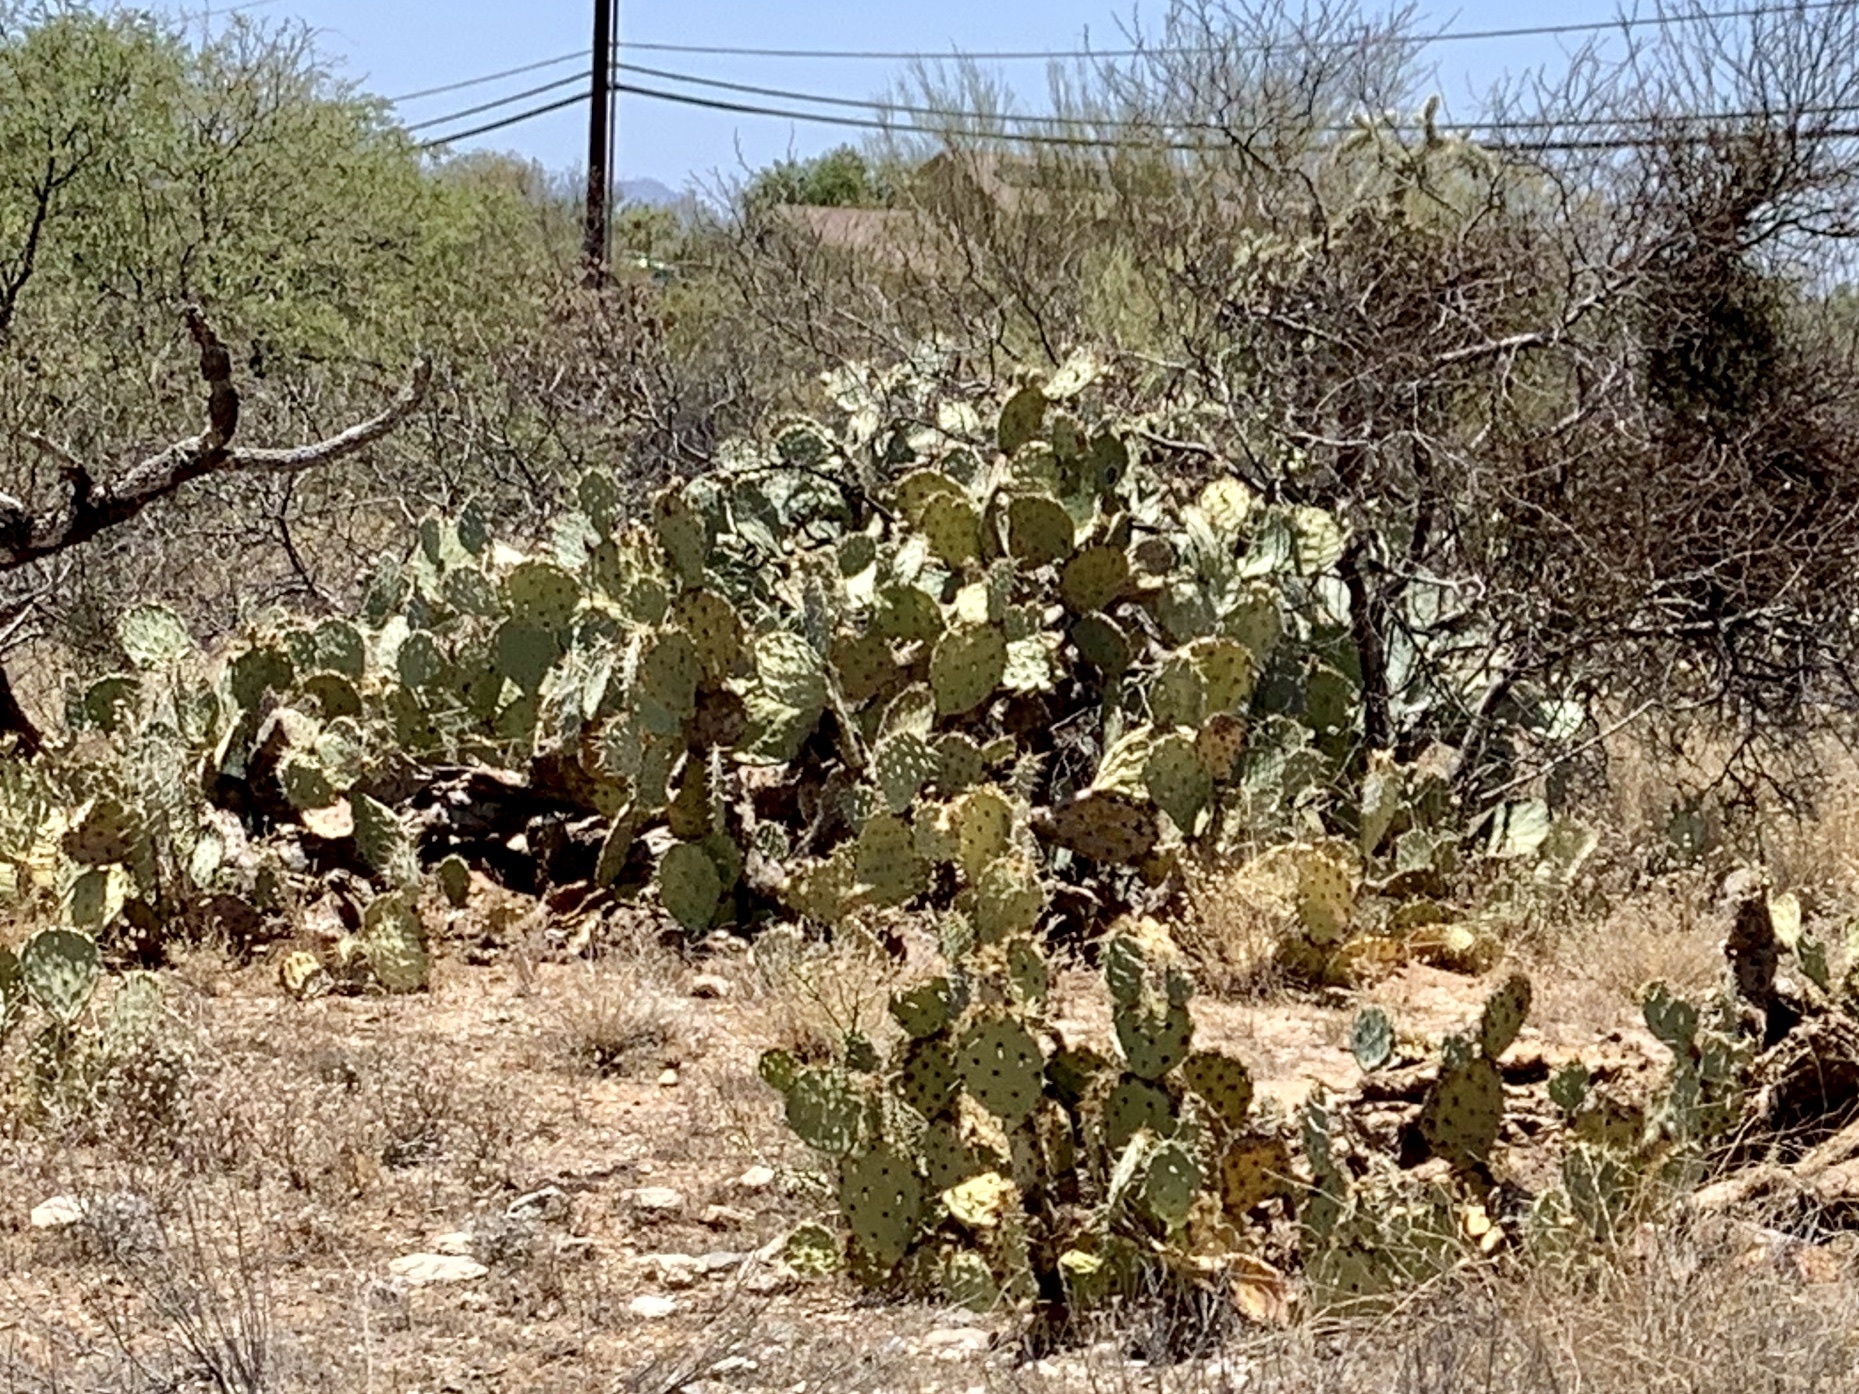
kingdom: Plantae
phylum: Tracheophyta
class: Magnoliopsida
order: Caryophyllales
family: Cactaceae
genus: Opuntia
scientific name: Opuntia engelmannii
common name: Cactus-apple
